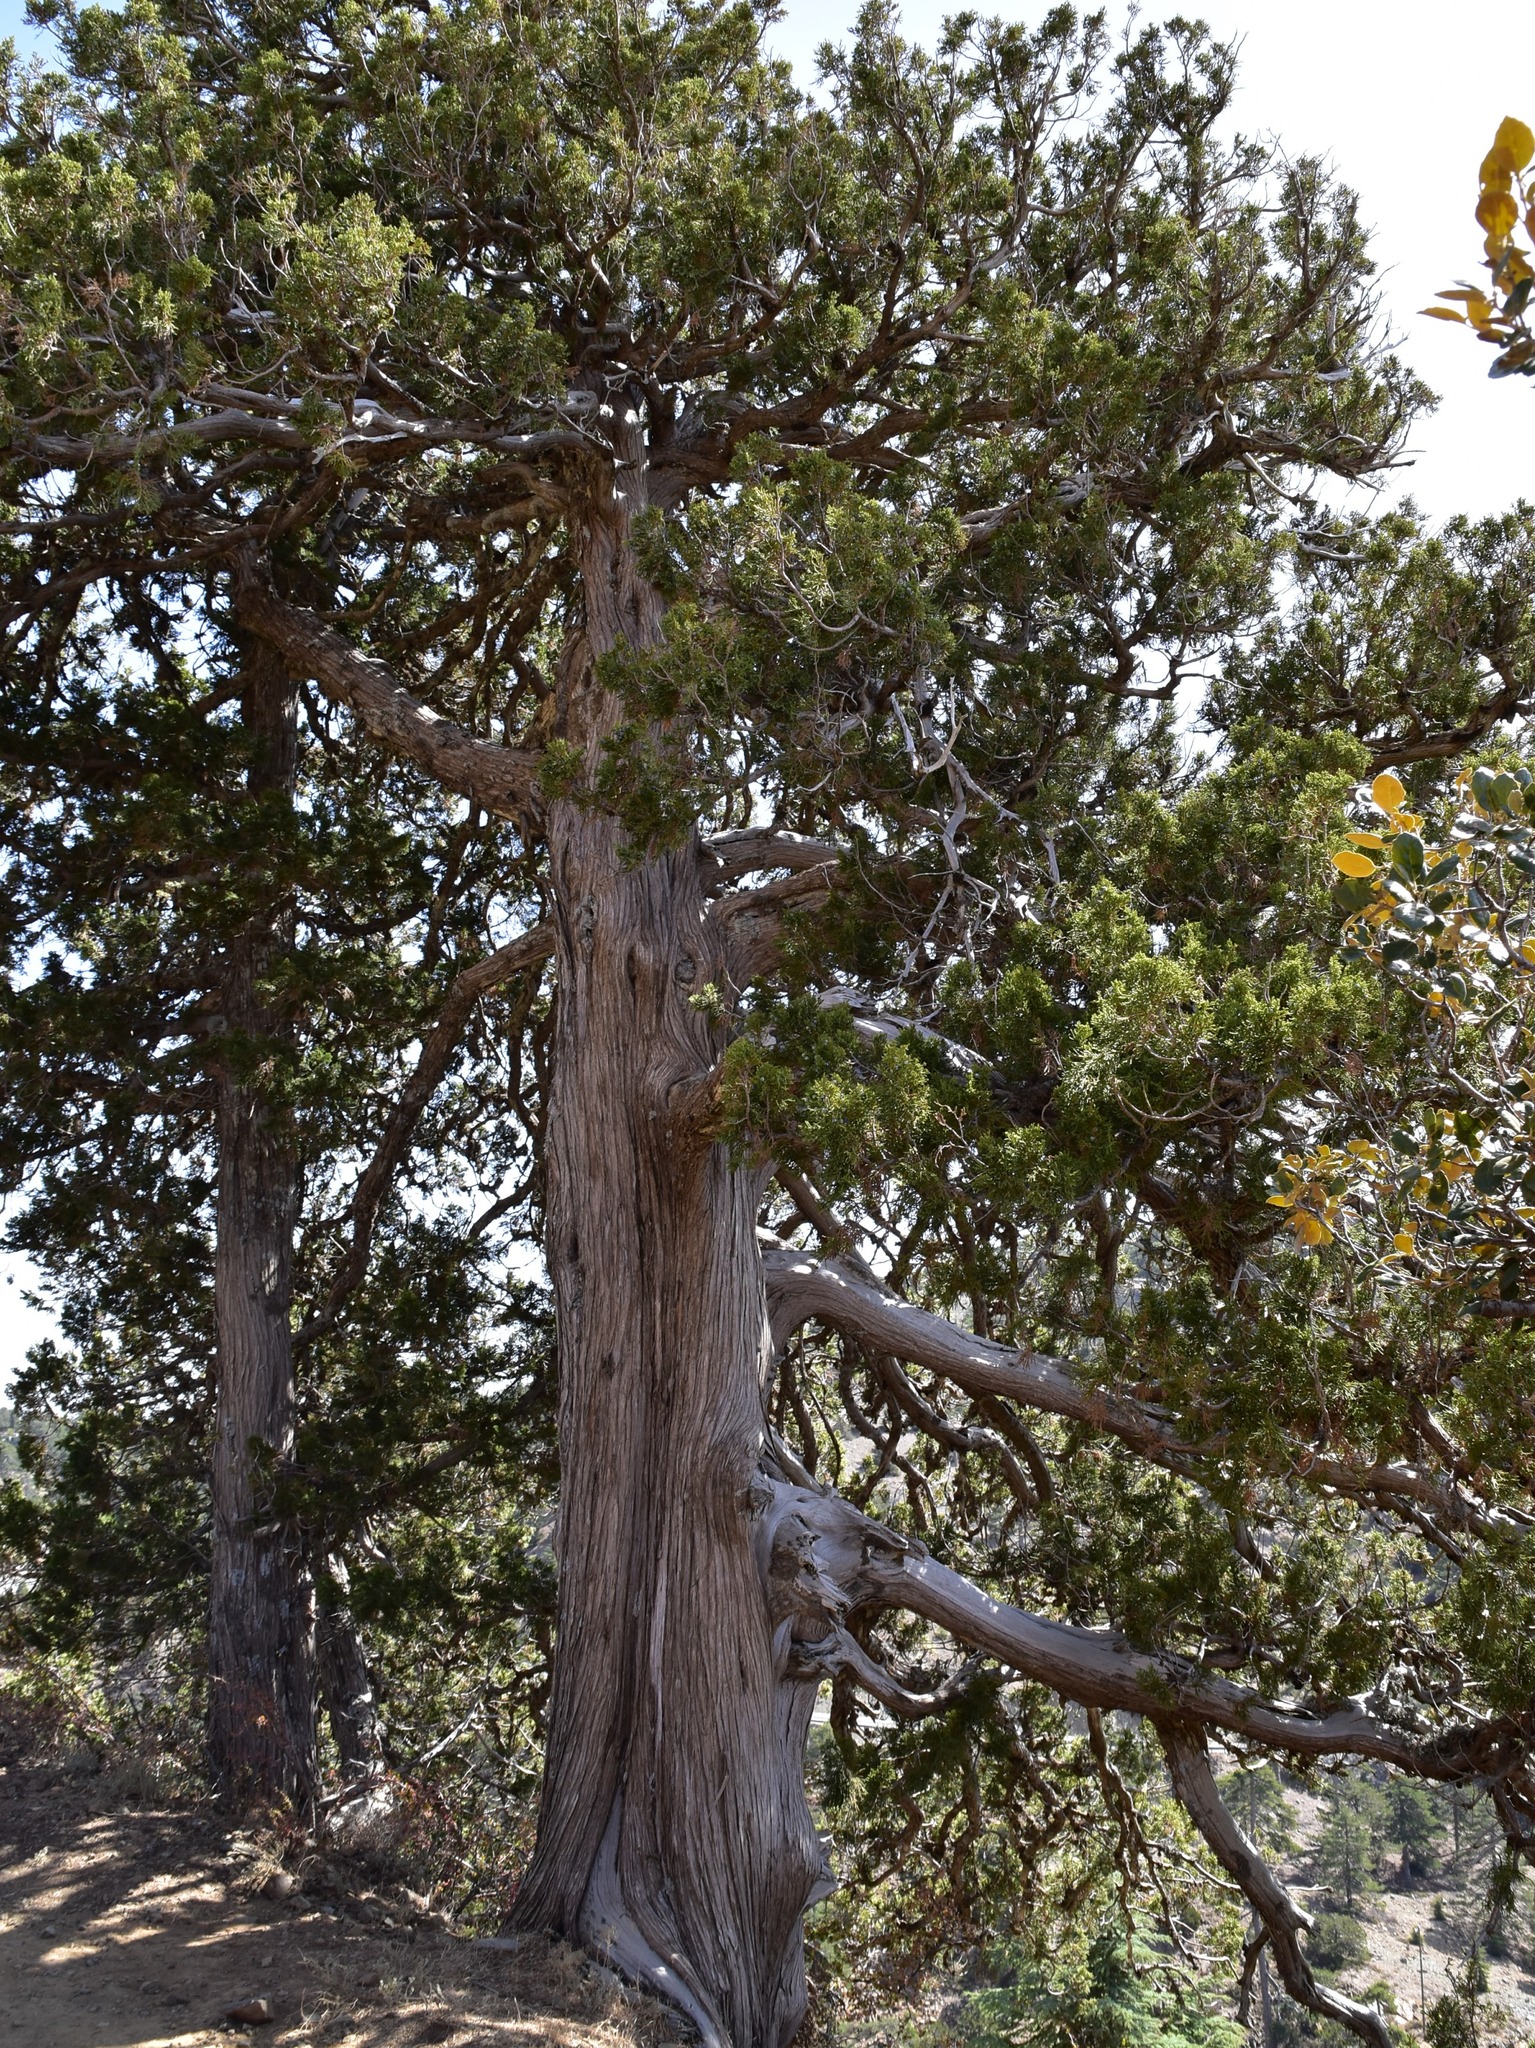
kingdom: Plantae
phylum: Tracheophyta
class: Pinopsida
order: Pinales
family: Cupressaceae
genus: Juniperus
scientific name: Juniperus foetidissima
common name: Stinking juniper
